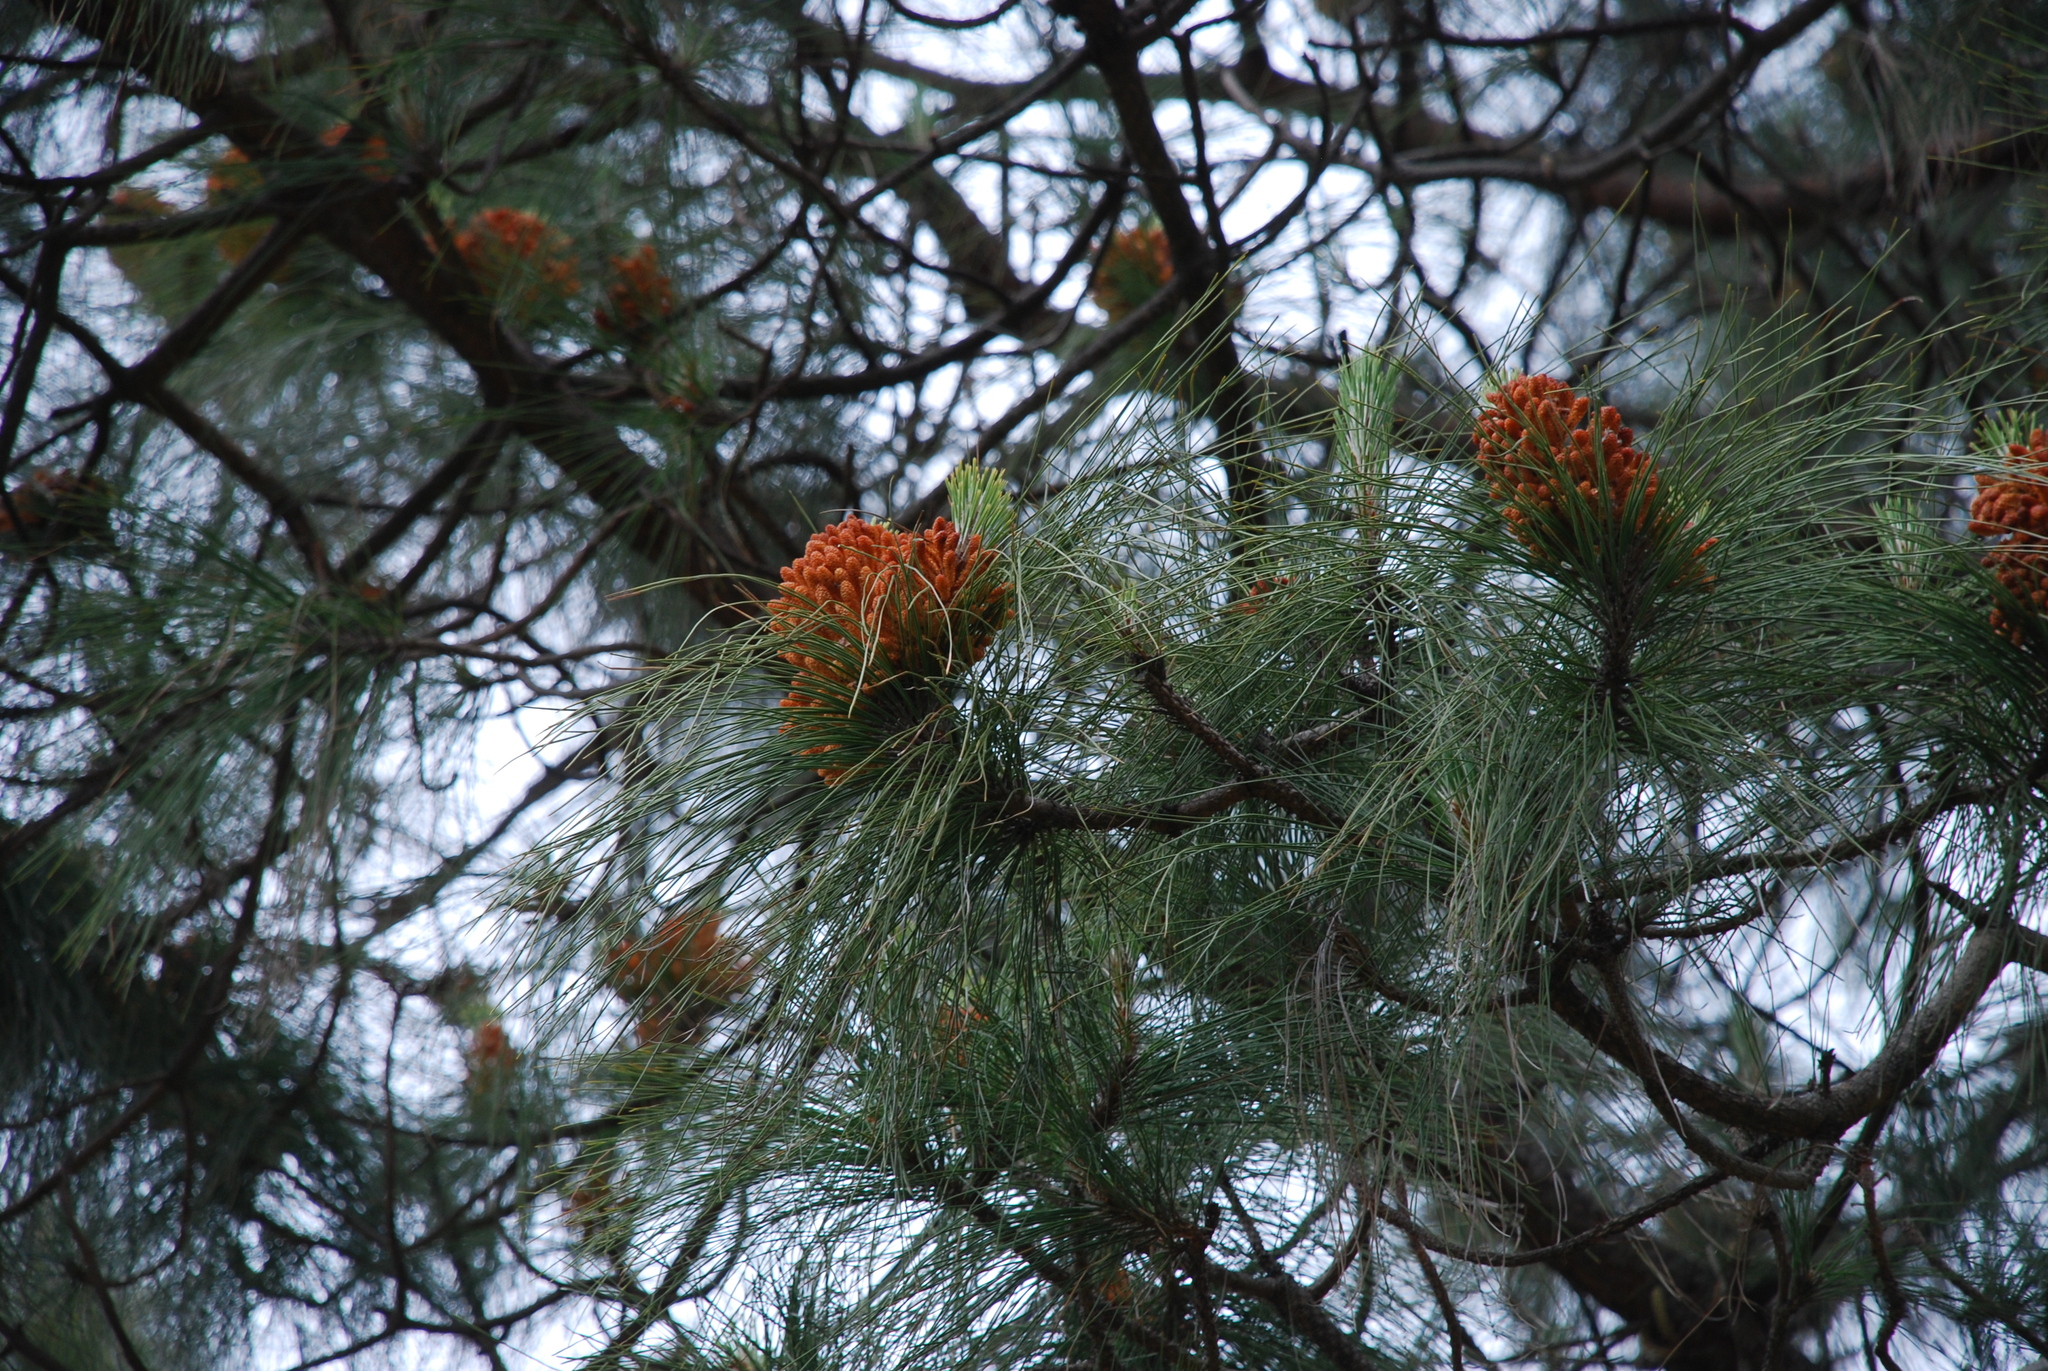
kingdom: Plantae
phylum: Tracheophyta
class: Pinopsida
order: Pinales
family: Pinaceae
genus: Pinus
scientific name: Pinus canariensis
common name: Canary islands pine
